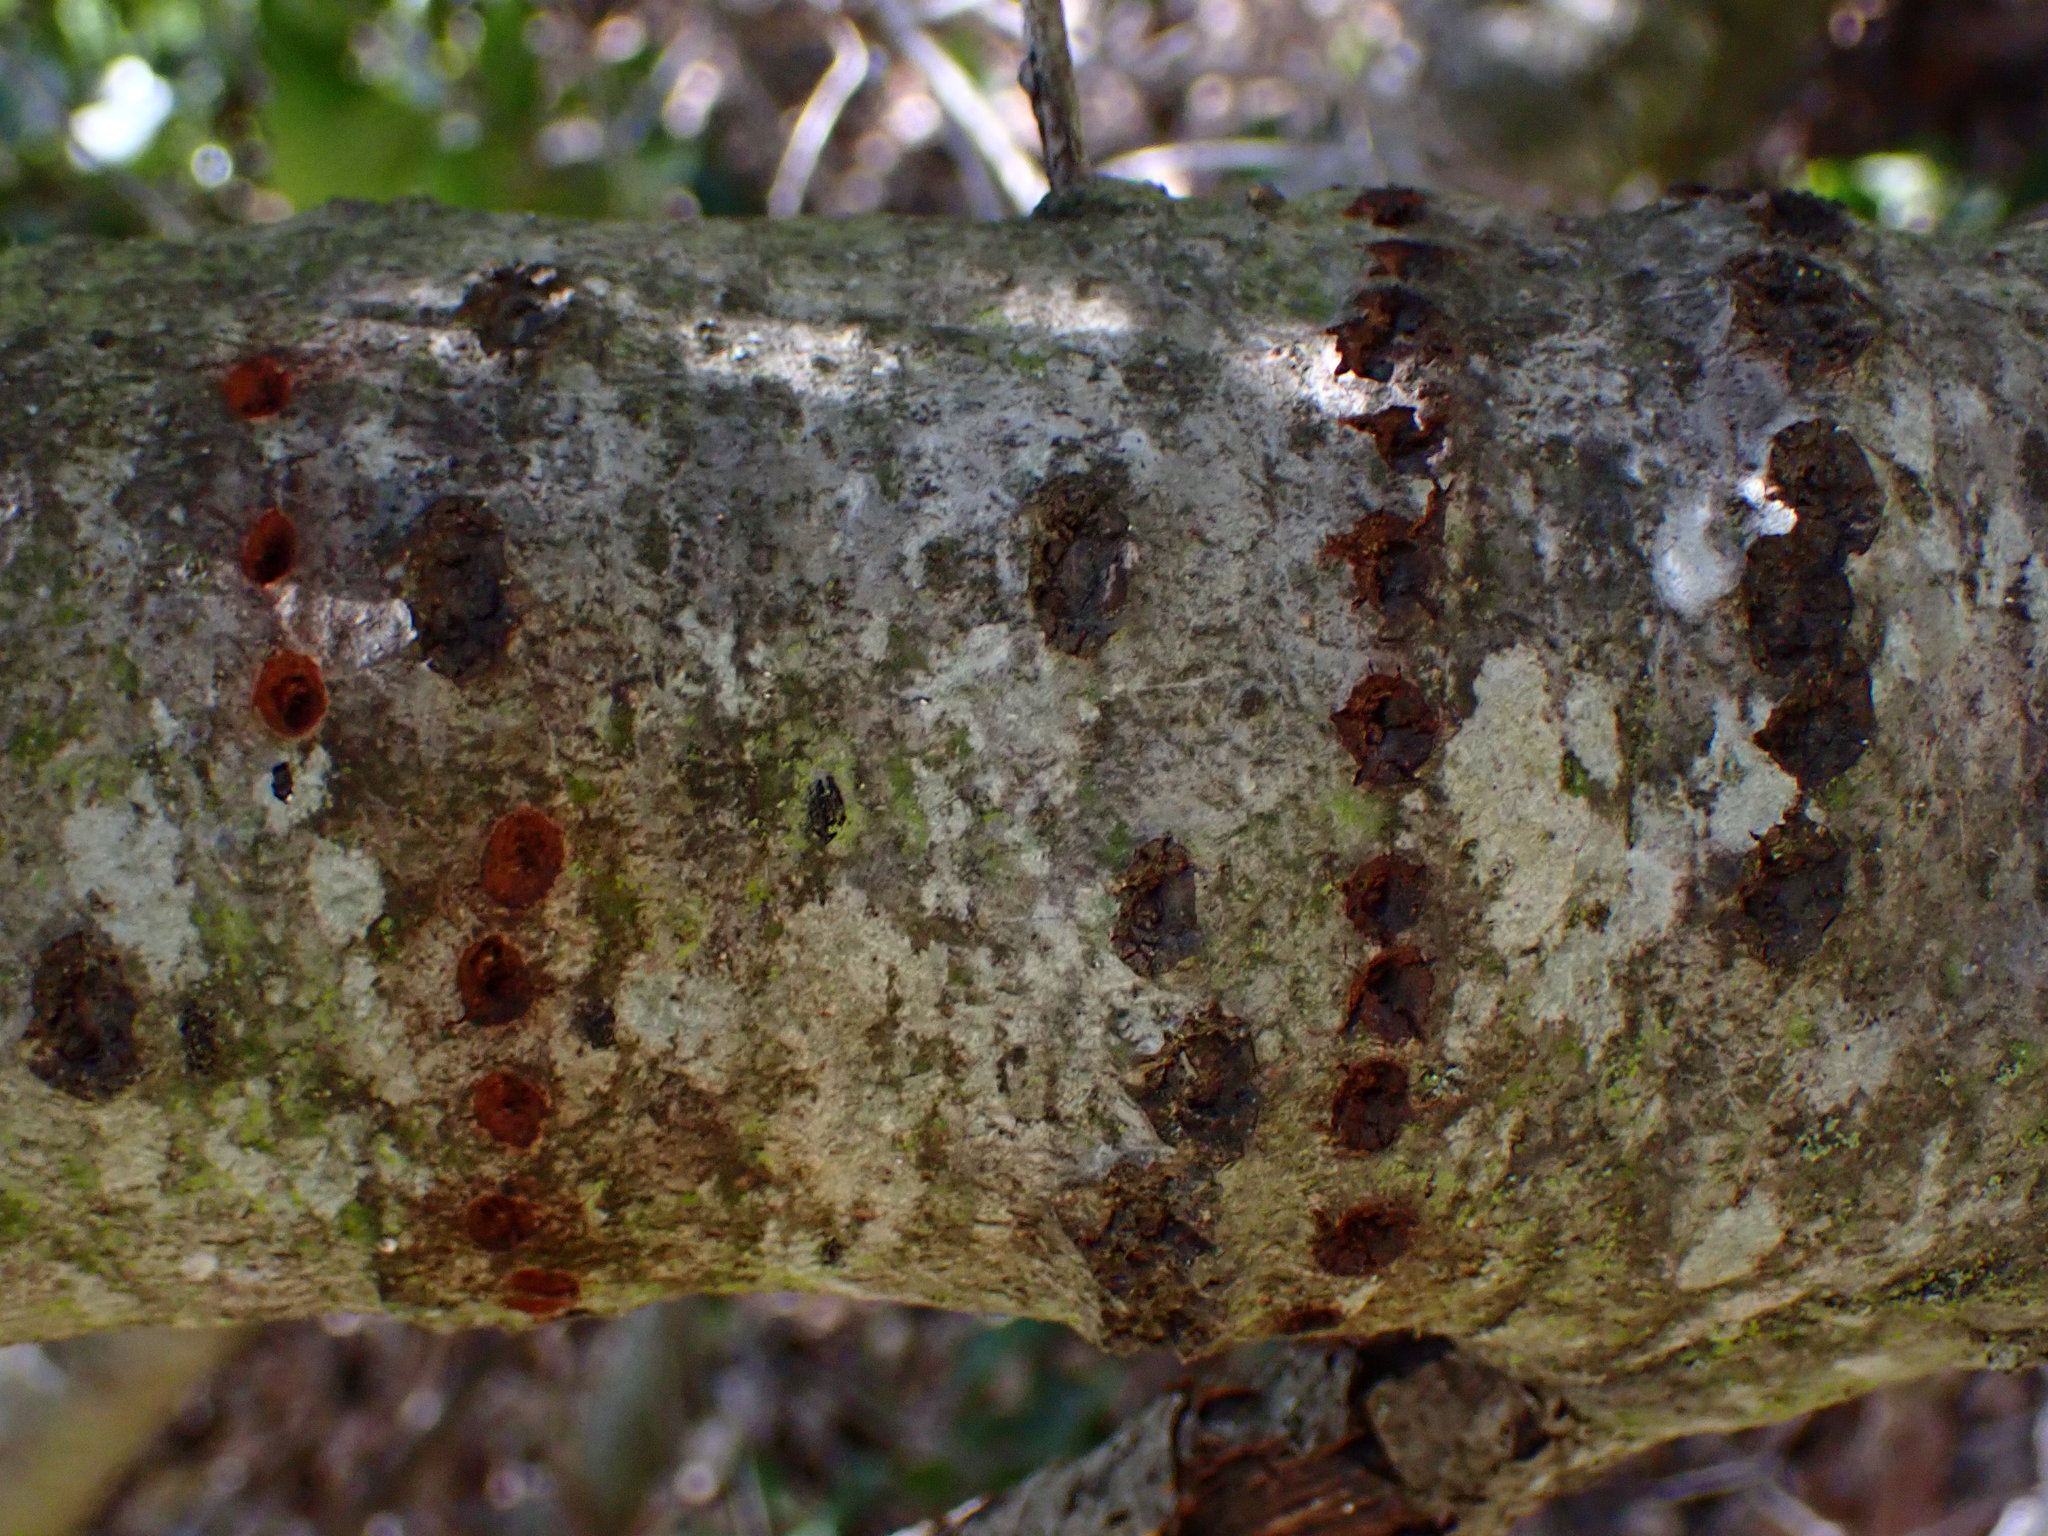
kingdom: Animalia
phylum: Chordata
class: Aves
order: Piciformes
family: Picidae
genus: Sphyrapicus
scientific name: Sphyrapicus
